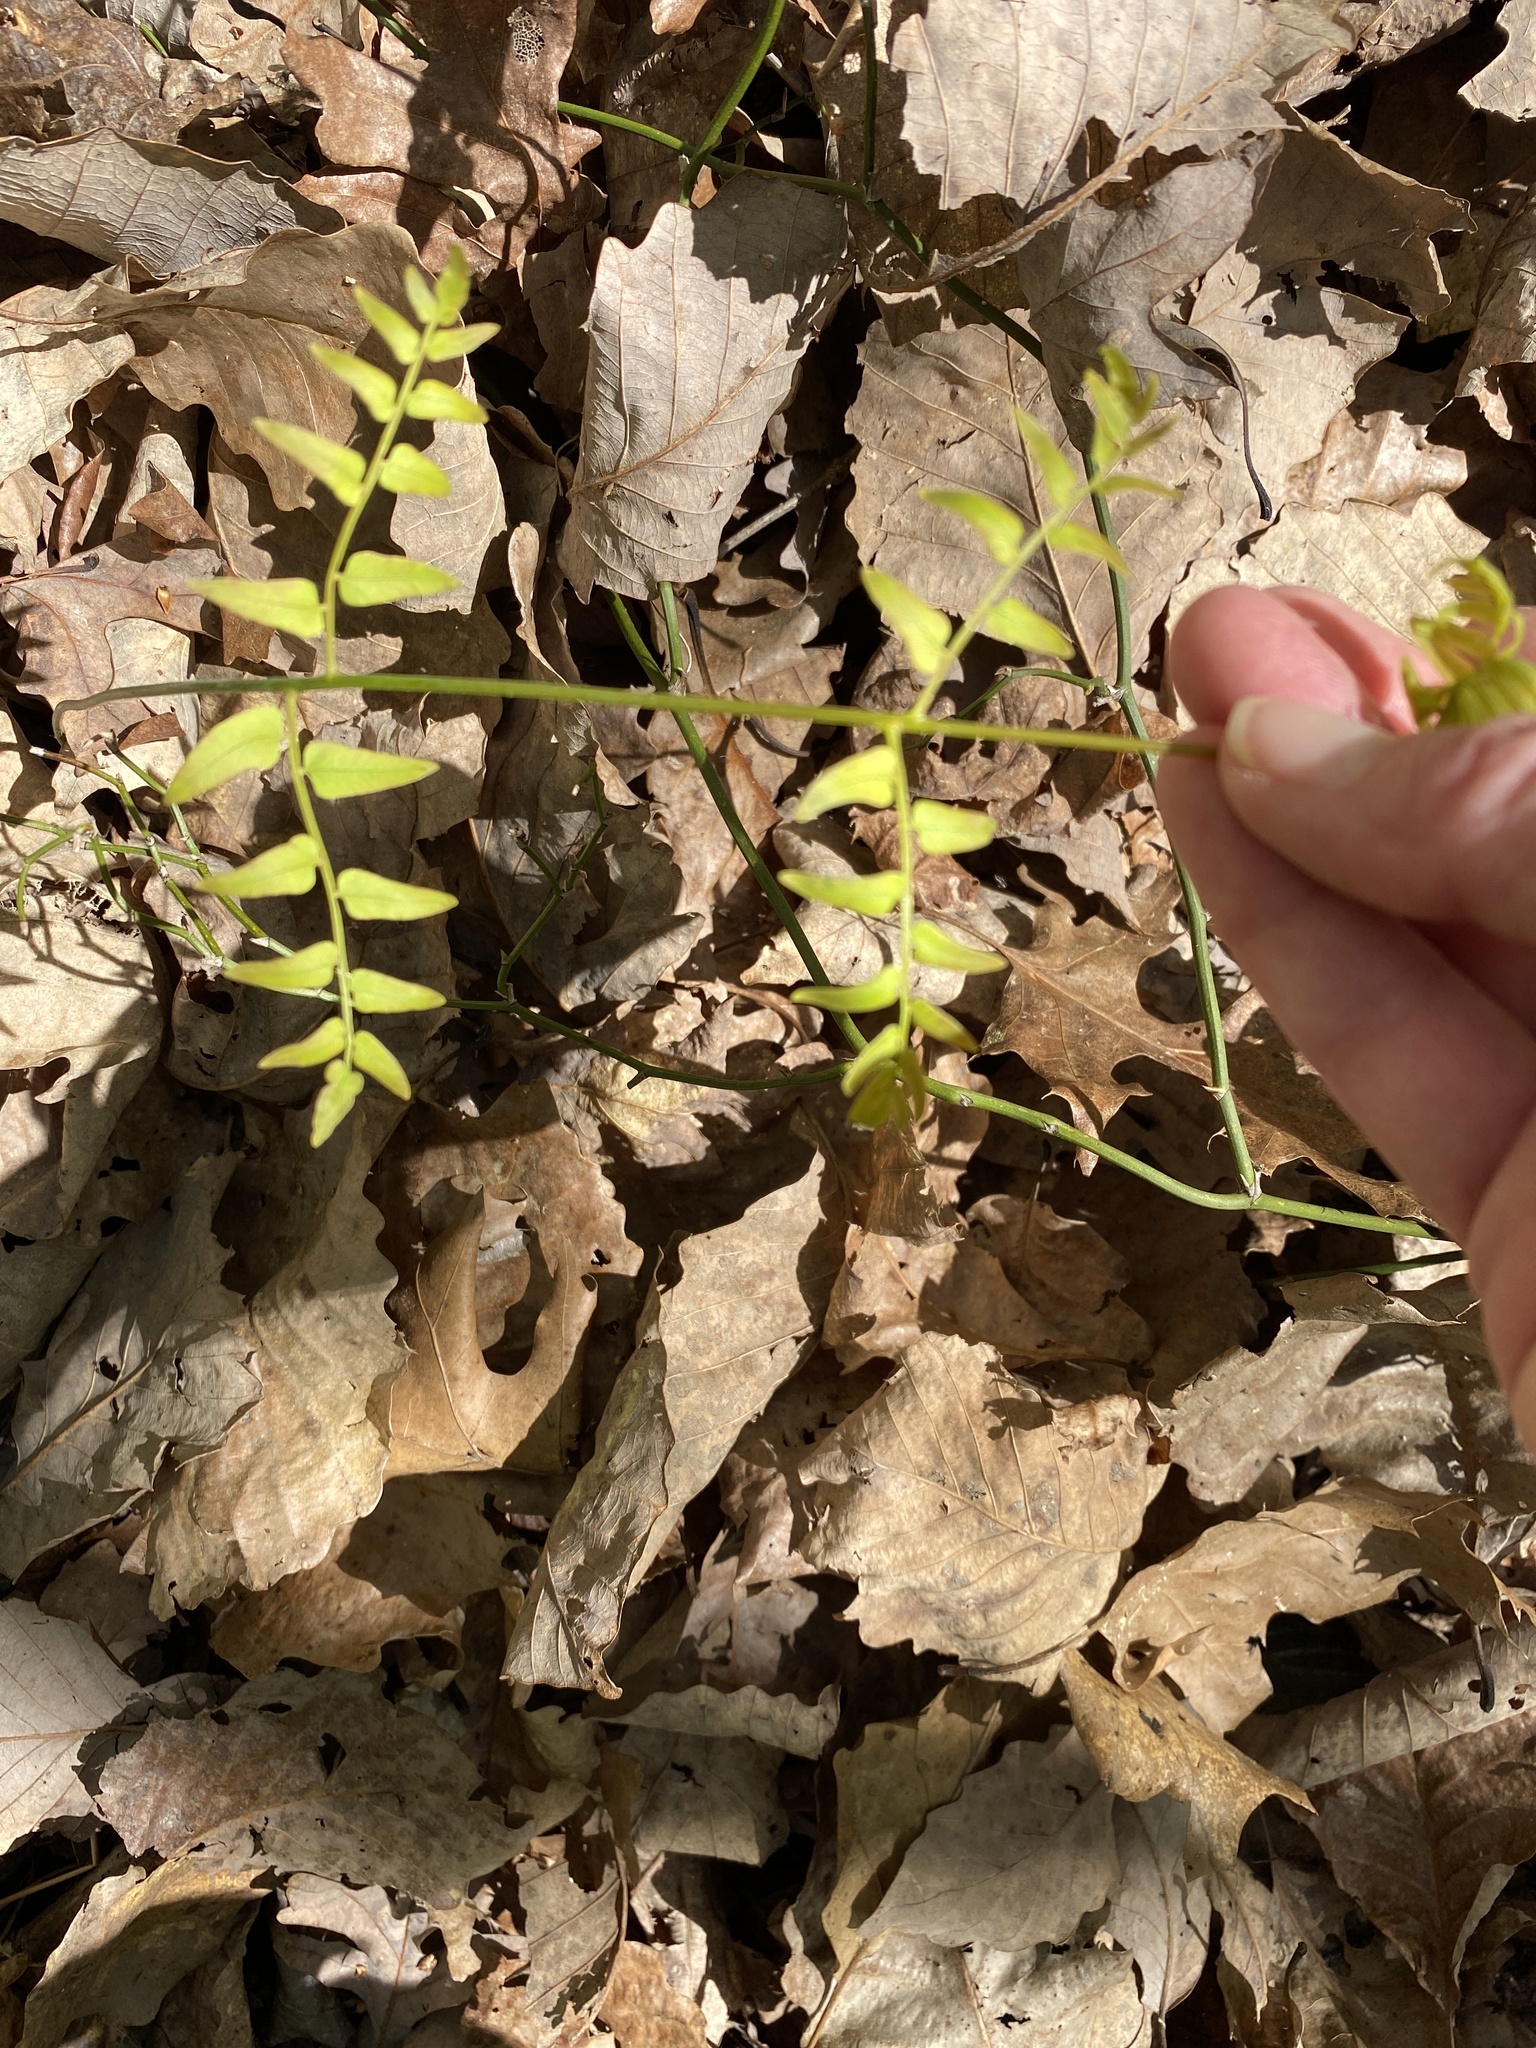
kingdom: Plantae
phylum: Tracheophyta
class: Polypodiopsida
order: Osmundales
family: Osmundaceae
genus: Osmunda
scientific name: Osmunda spectabilis
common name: American royal fern
